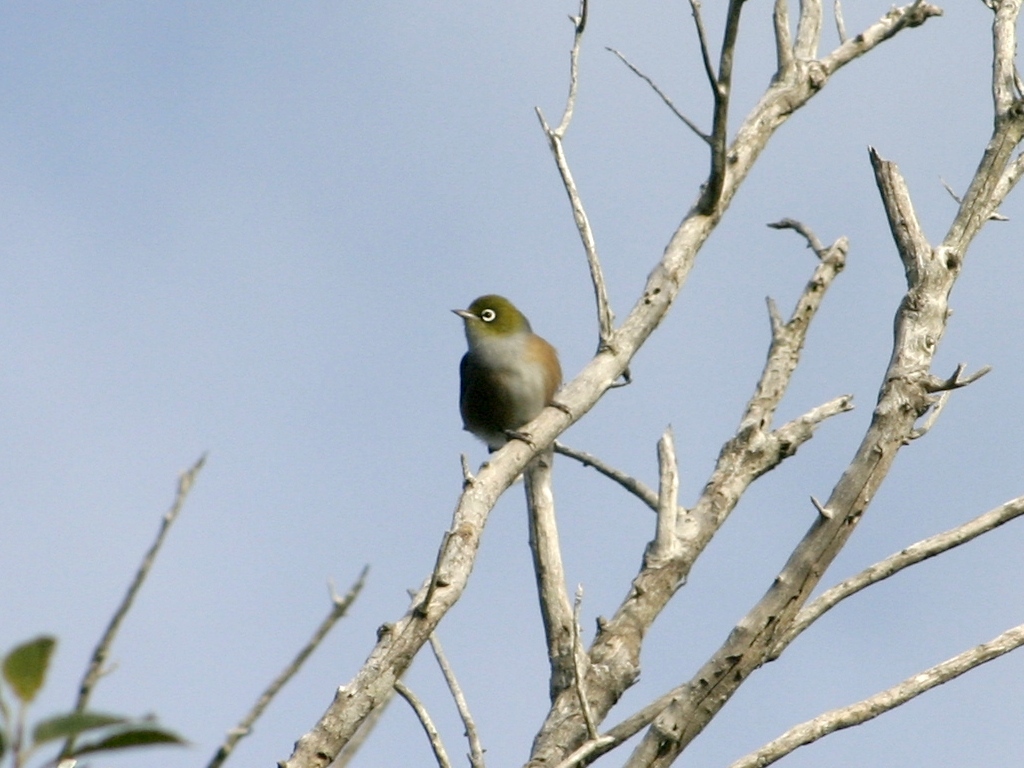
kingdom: Animalia
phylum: Chordata
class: Aves
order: Passeriformes
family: Zosteropidae
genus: Zosterops
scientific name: Zosterops lateralis
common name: Silvereye
